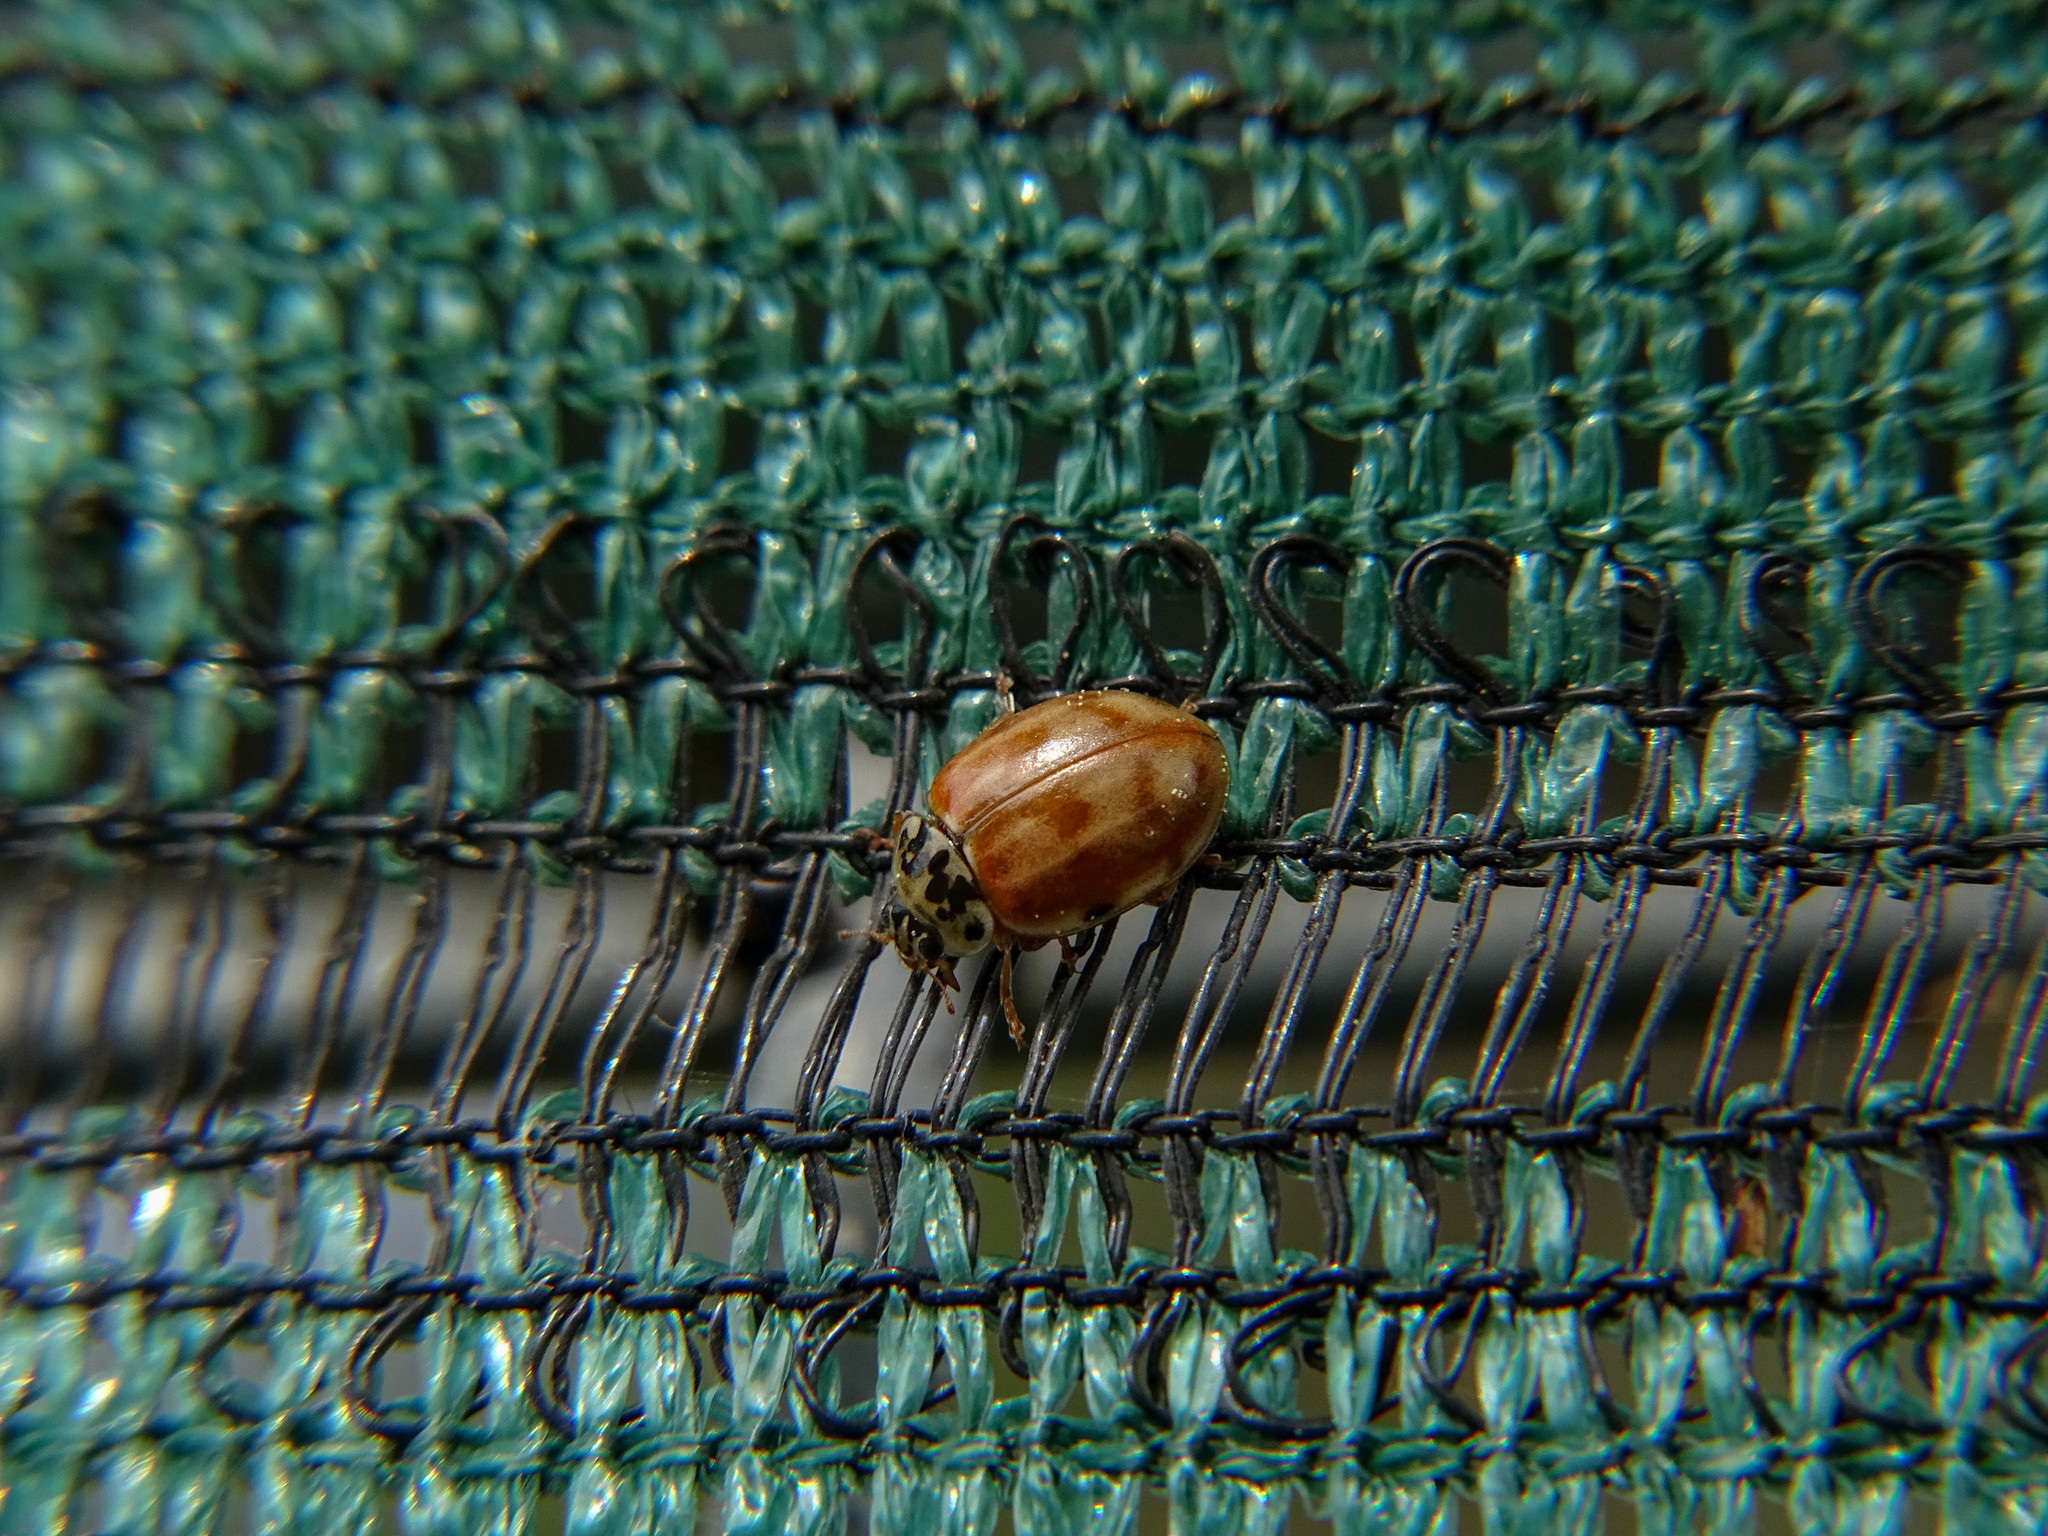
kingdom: Animalia
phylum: Arthropoda
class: Insecta
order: Coleoptera
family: Coccinellidae
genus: Harmonia
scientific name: Harmonia quadripunctata
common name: Cream-streaked ladybird
